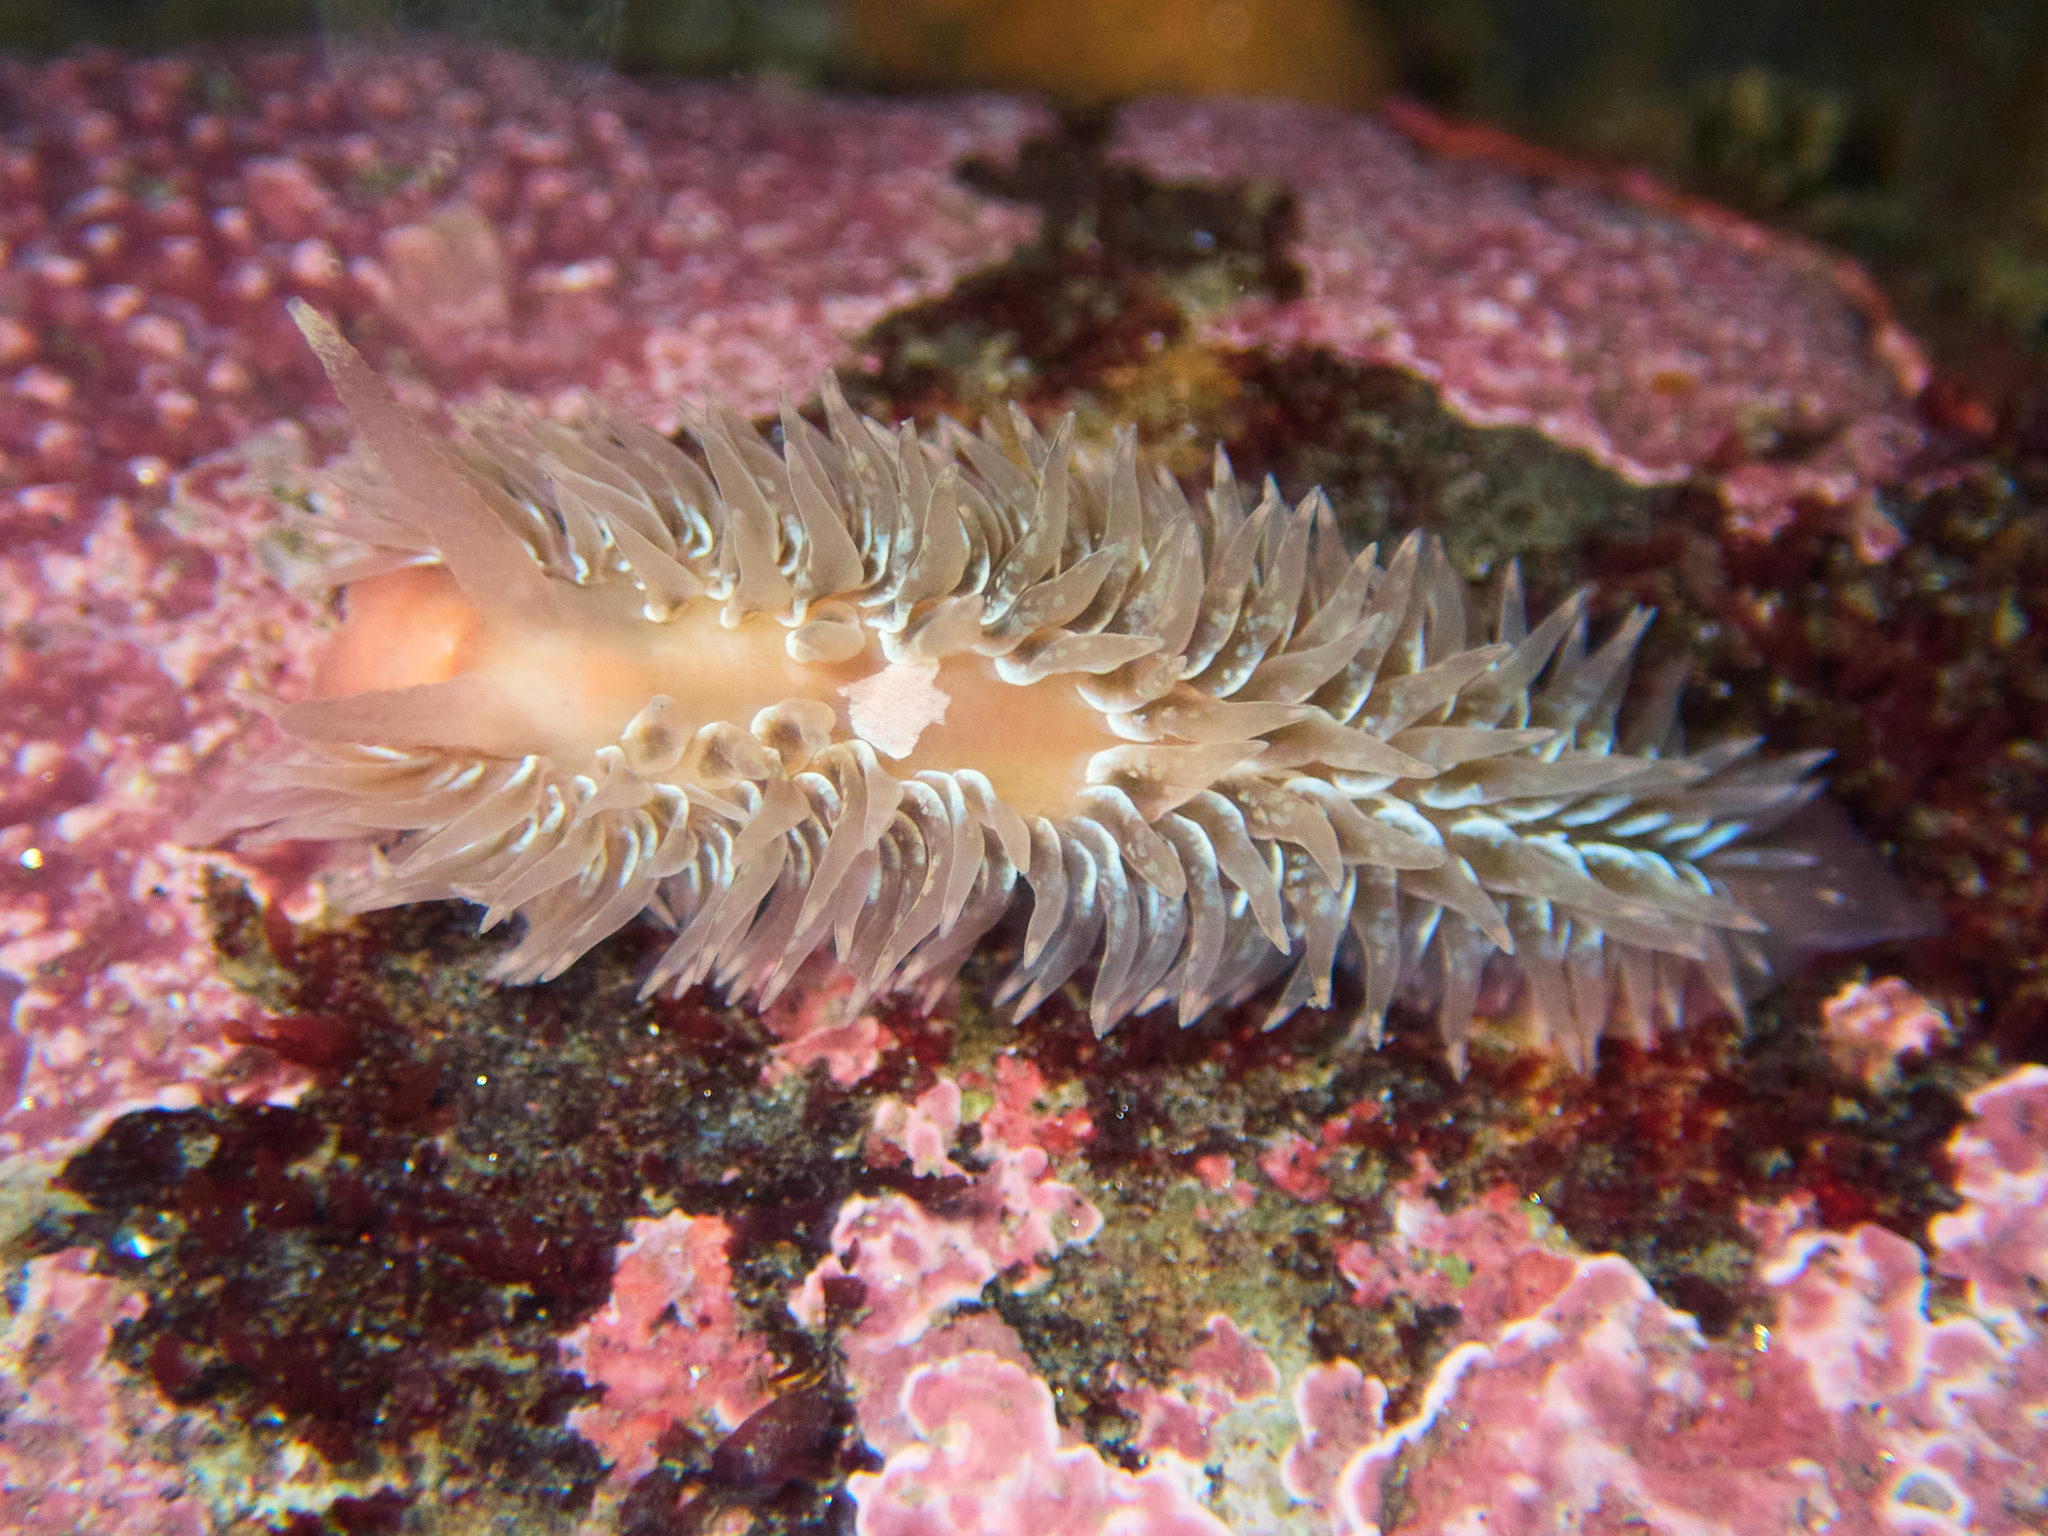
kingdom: Animalia
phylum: Mollusca
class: Gastropoda
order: Nudibranchia
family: Aeolidiidae
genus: Aeolidia
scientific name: Aeolidia loui
